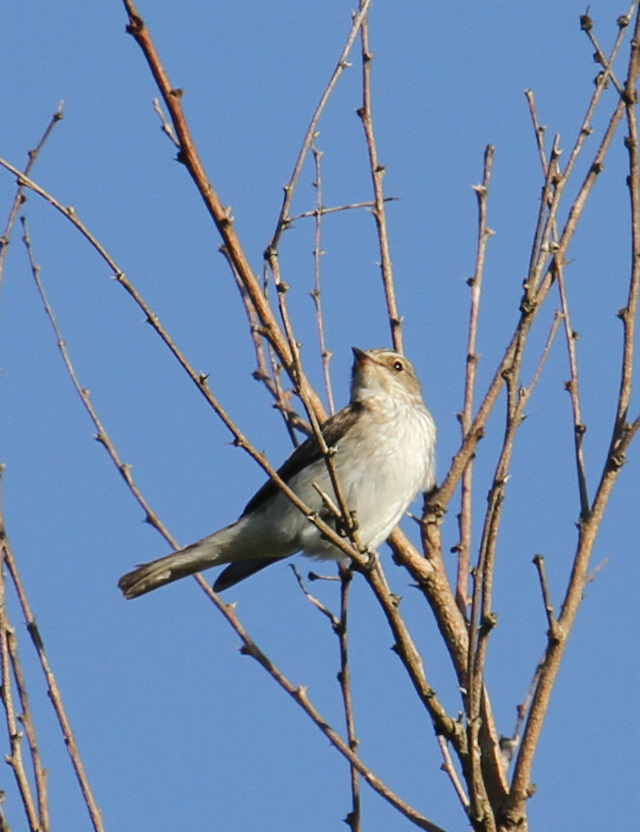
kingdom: Animalia
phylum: Chordata
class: Aves
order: Passeriformes
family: Muscicapidae
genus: Muscicapa
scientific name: Muscicapa striata
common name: Spotted flycatcher
